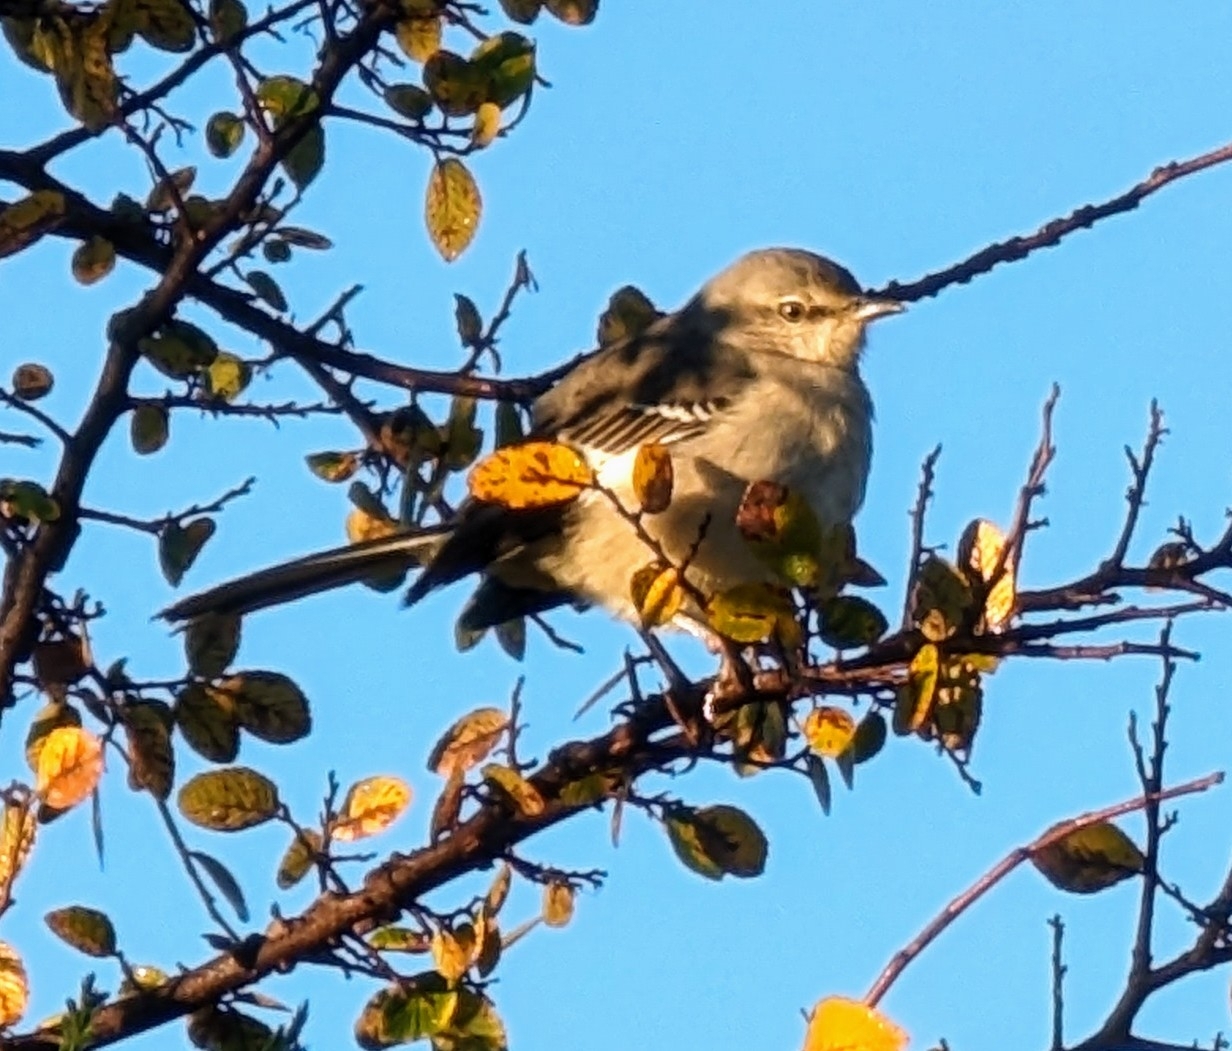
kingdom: Animalia
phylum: Chordata
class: Aves
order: Passeriformes
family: Mimidae
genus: Mimus
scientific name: Mimus polyglottos
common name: Northern mockingbird
